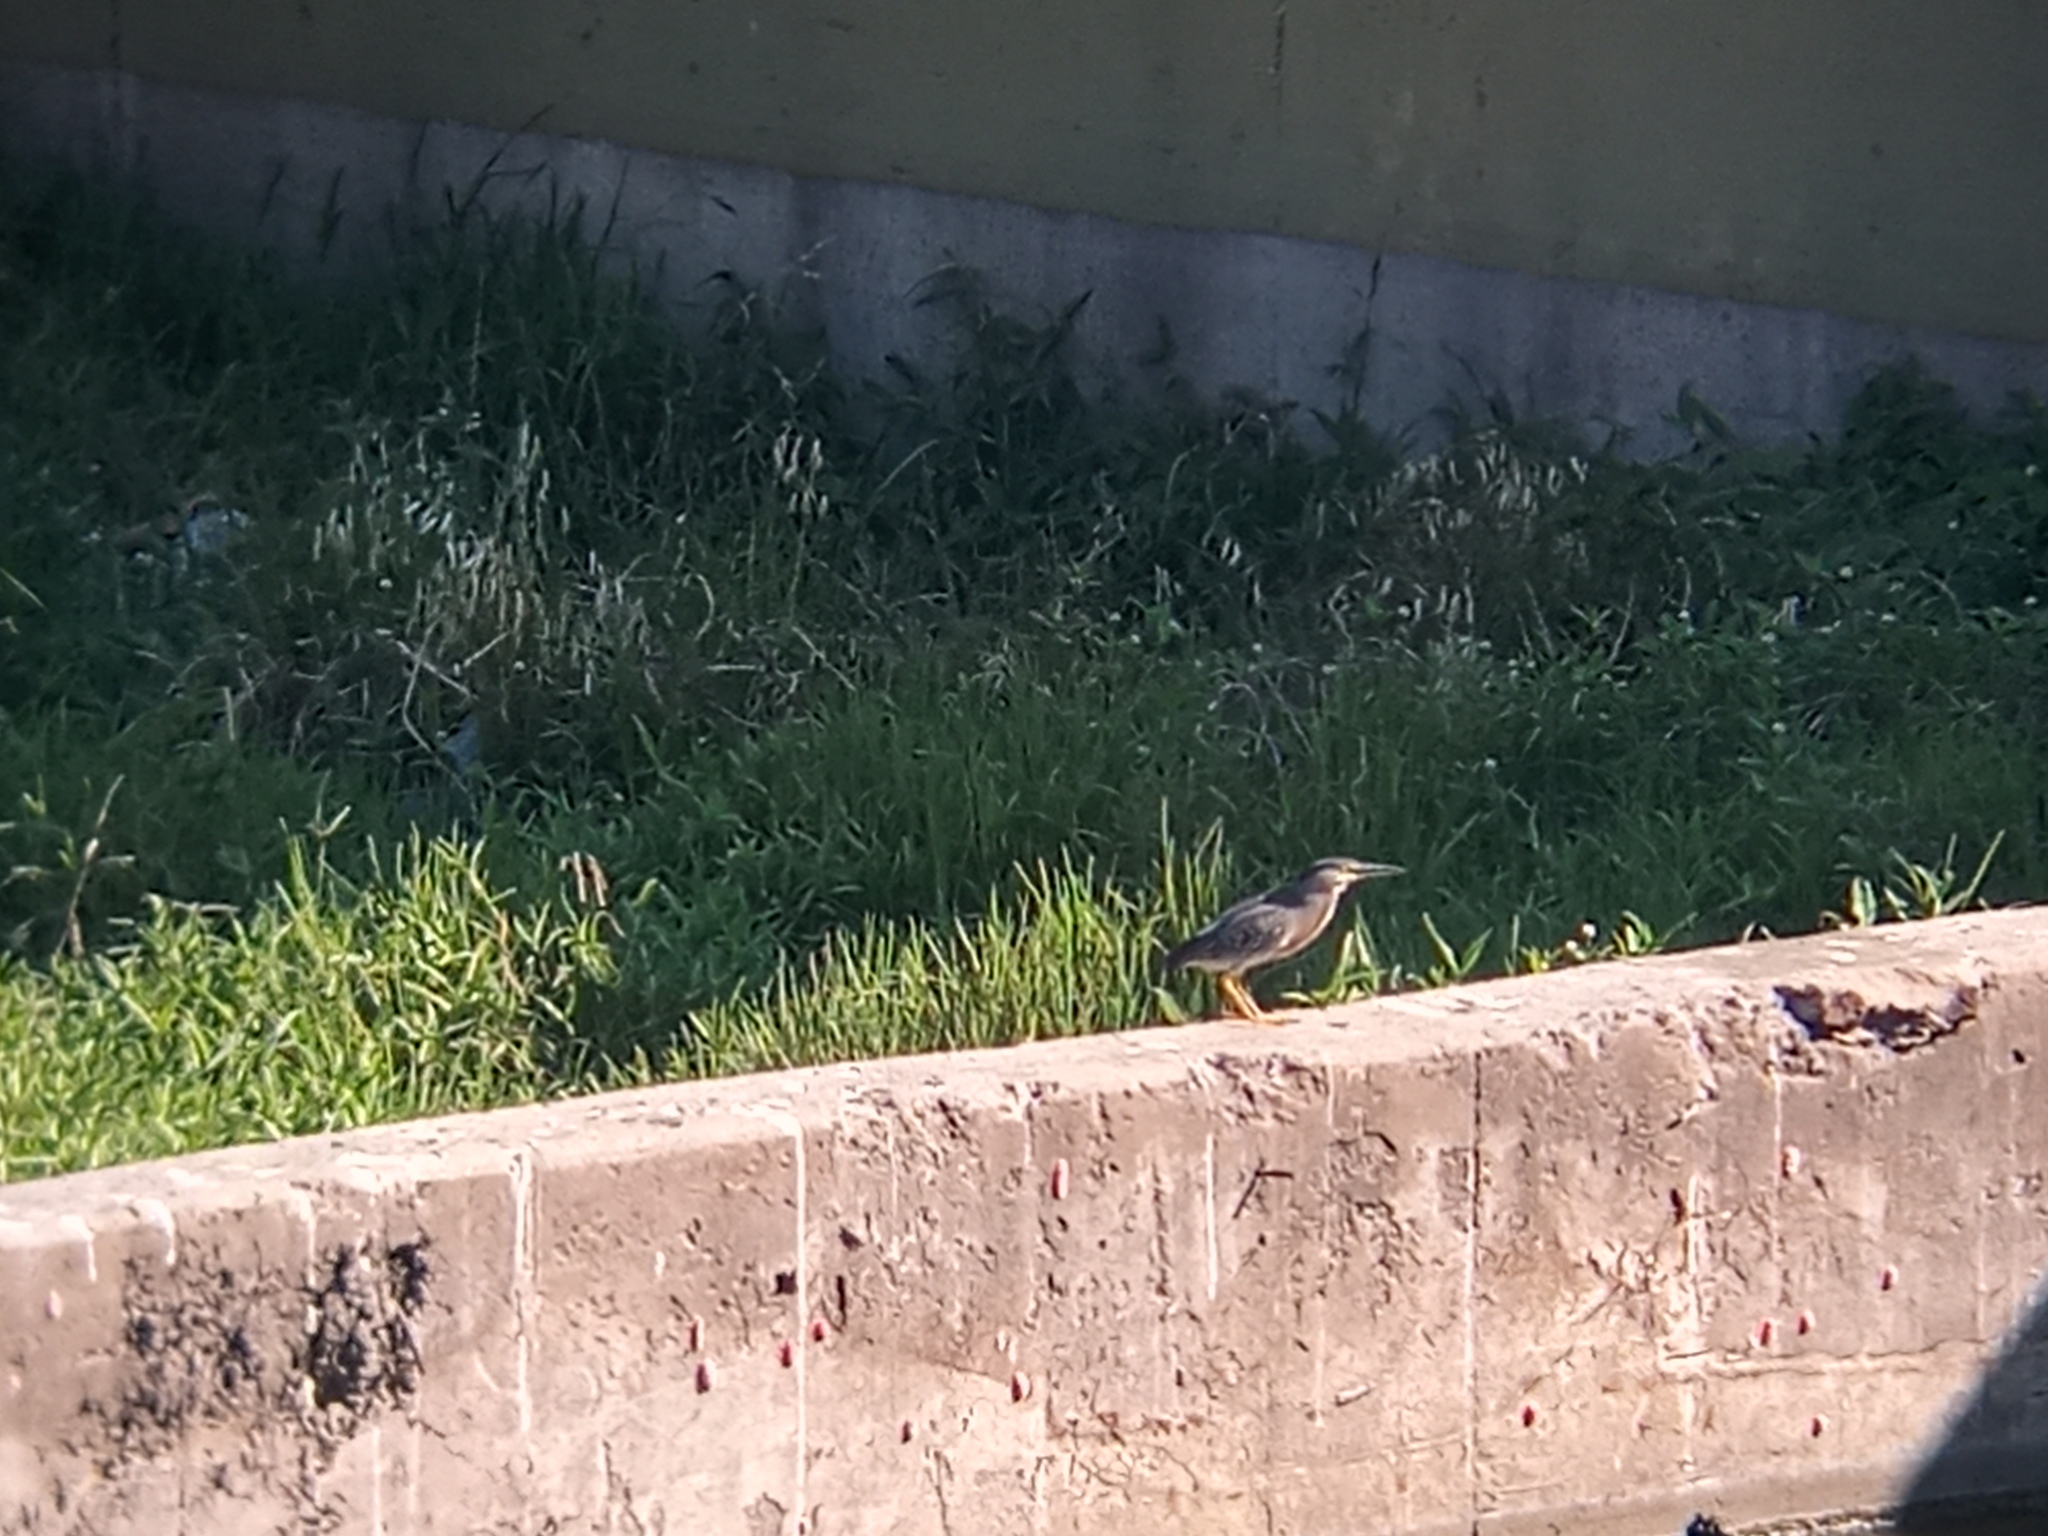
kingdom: Animalia
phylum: Chordata
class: Aves
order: Pelecaniformes
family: Ardeidae
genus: Butorides
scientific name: Butorides striata
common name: Striated heron
